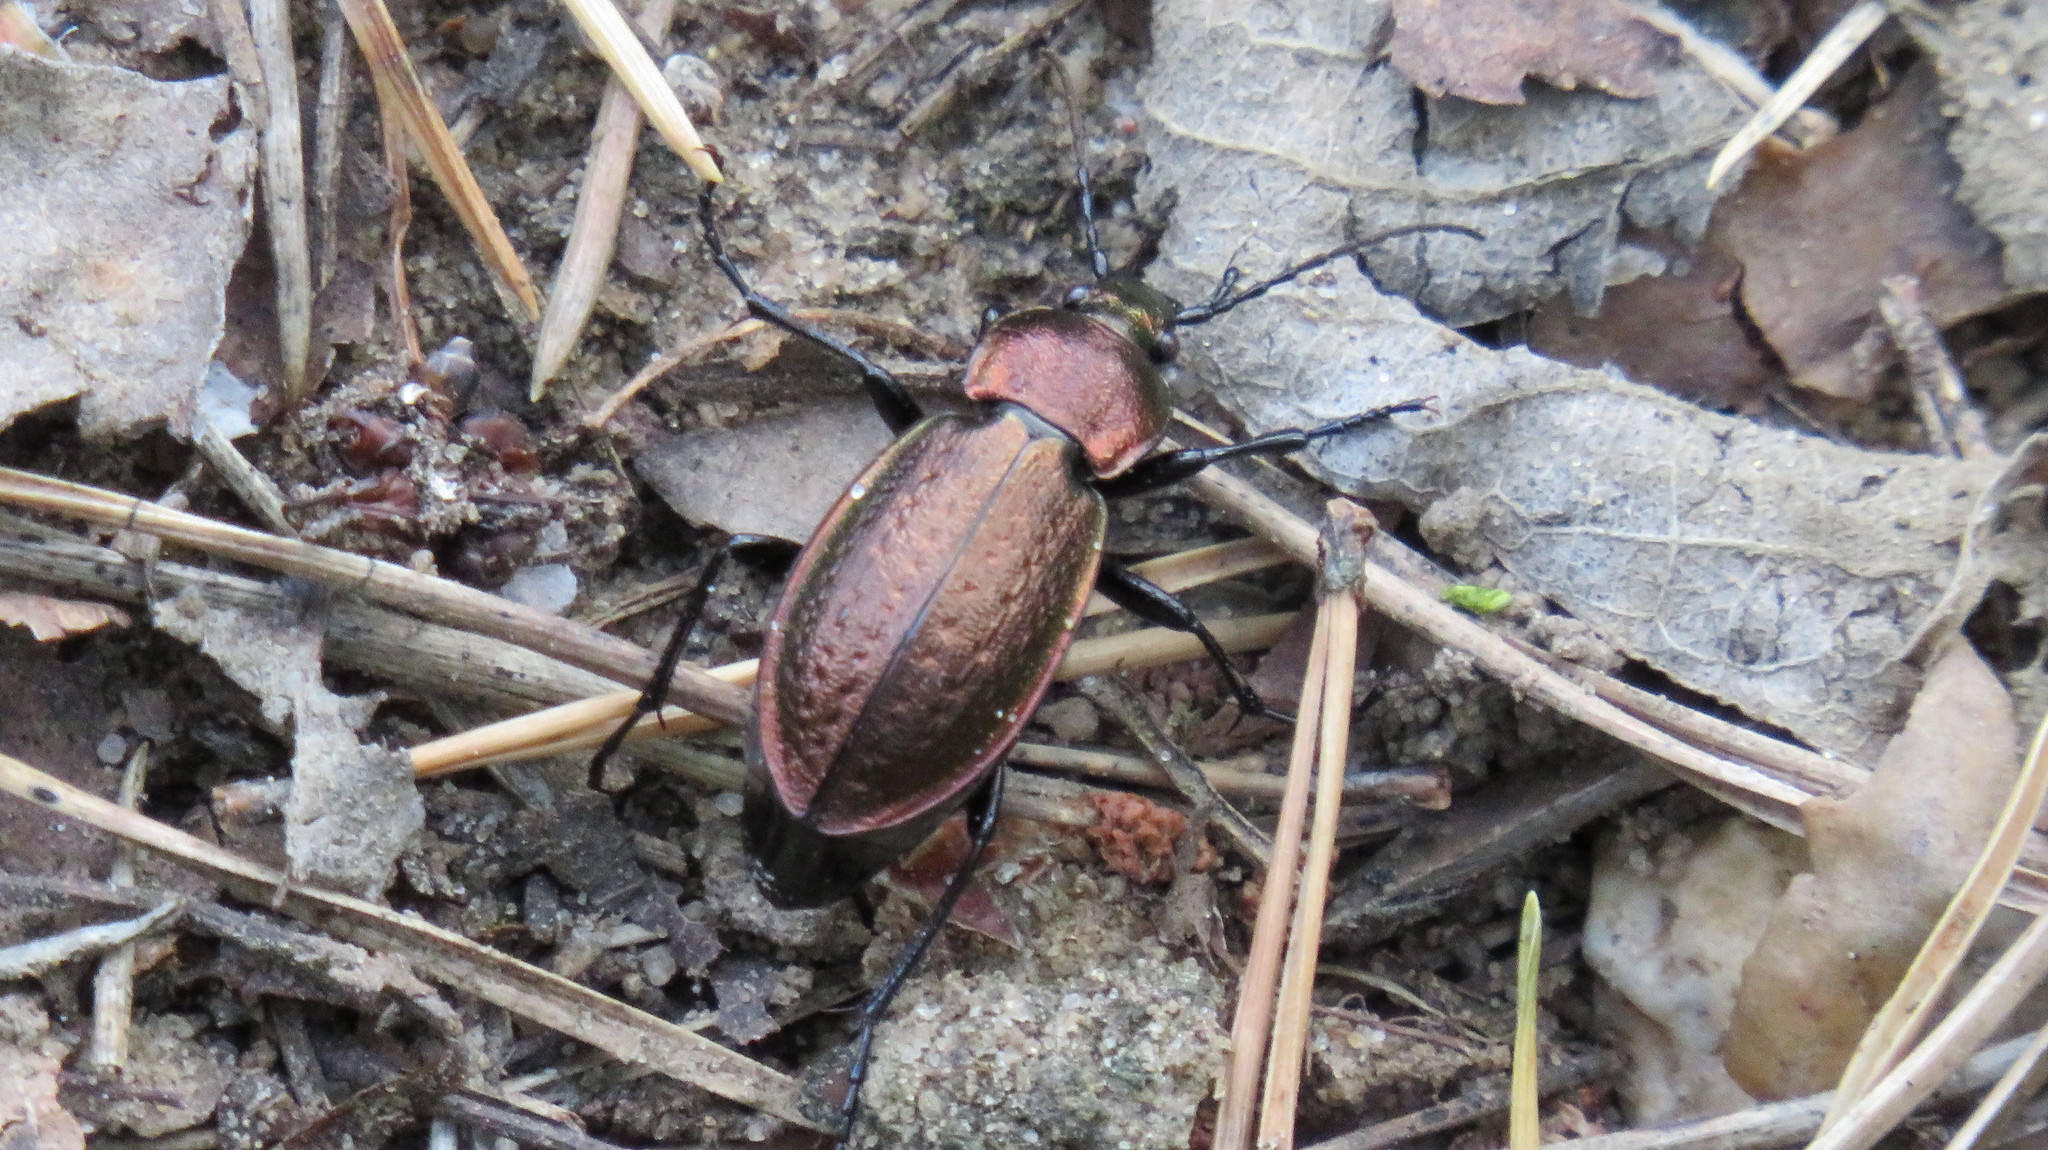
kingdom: Animalia
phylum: Arthropoda
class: Insecta
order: Coleoptera
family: Carabidae
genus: Carabus
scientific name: Carabus arvensis
